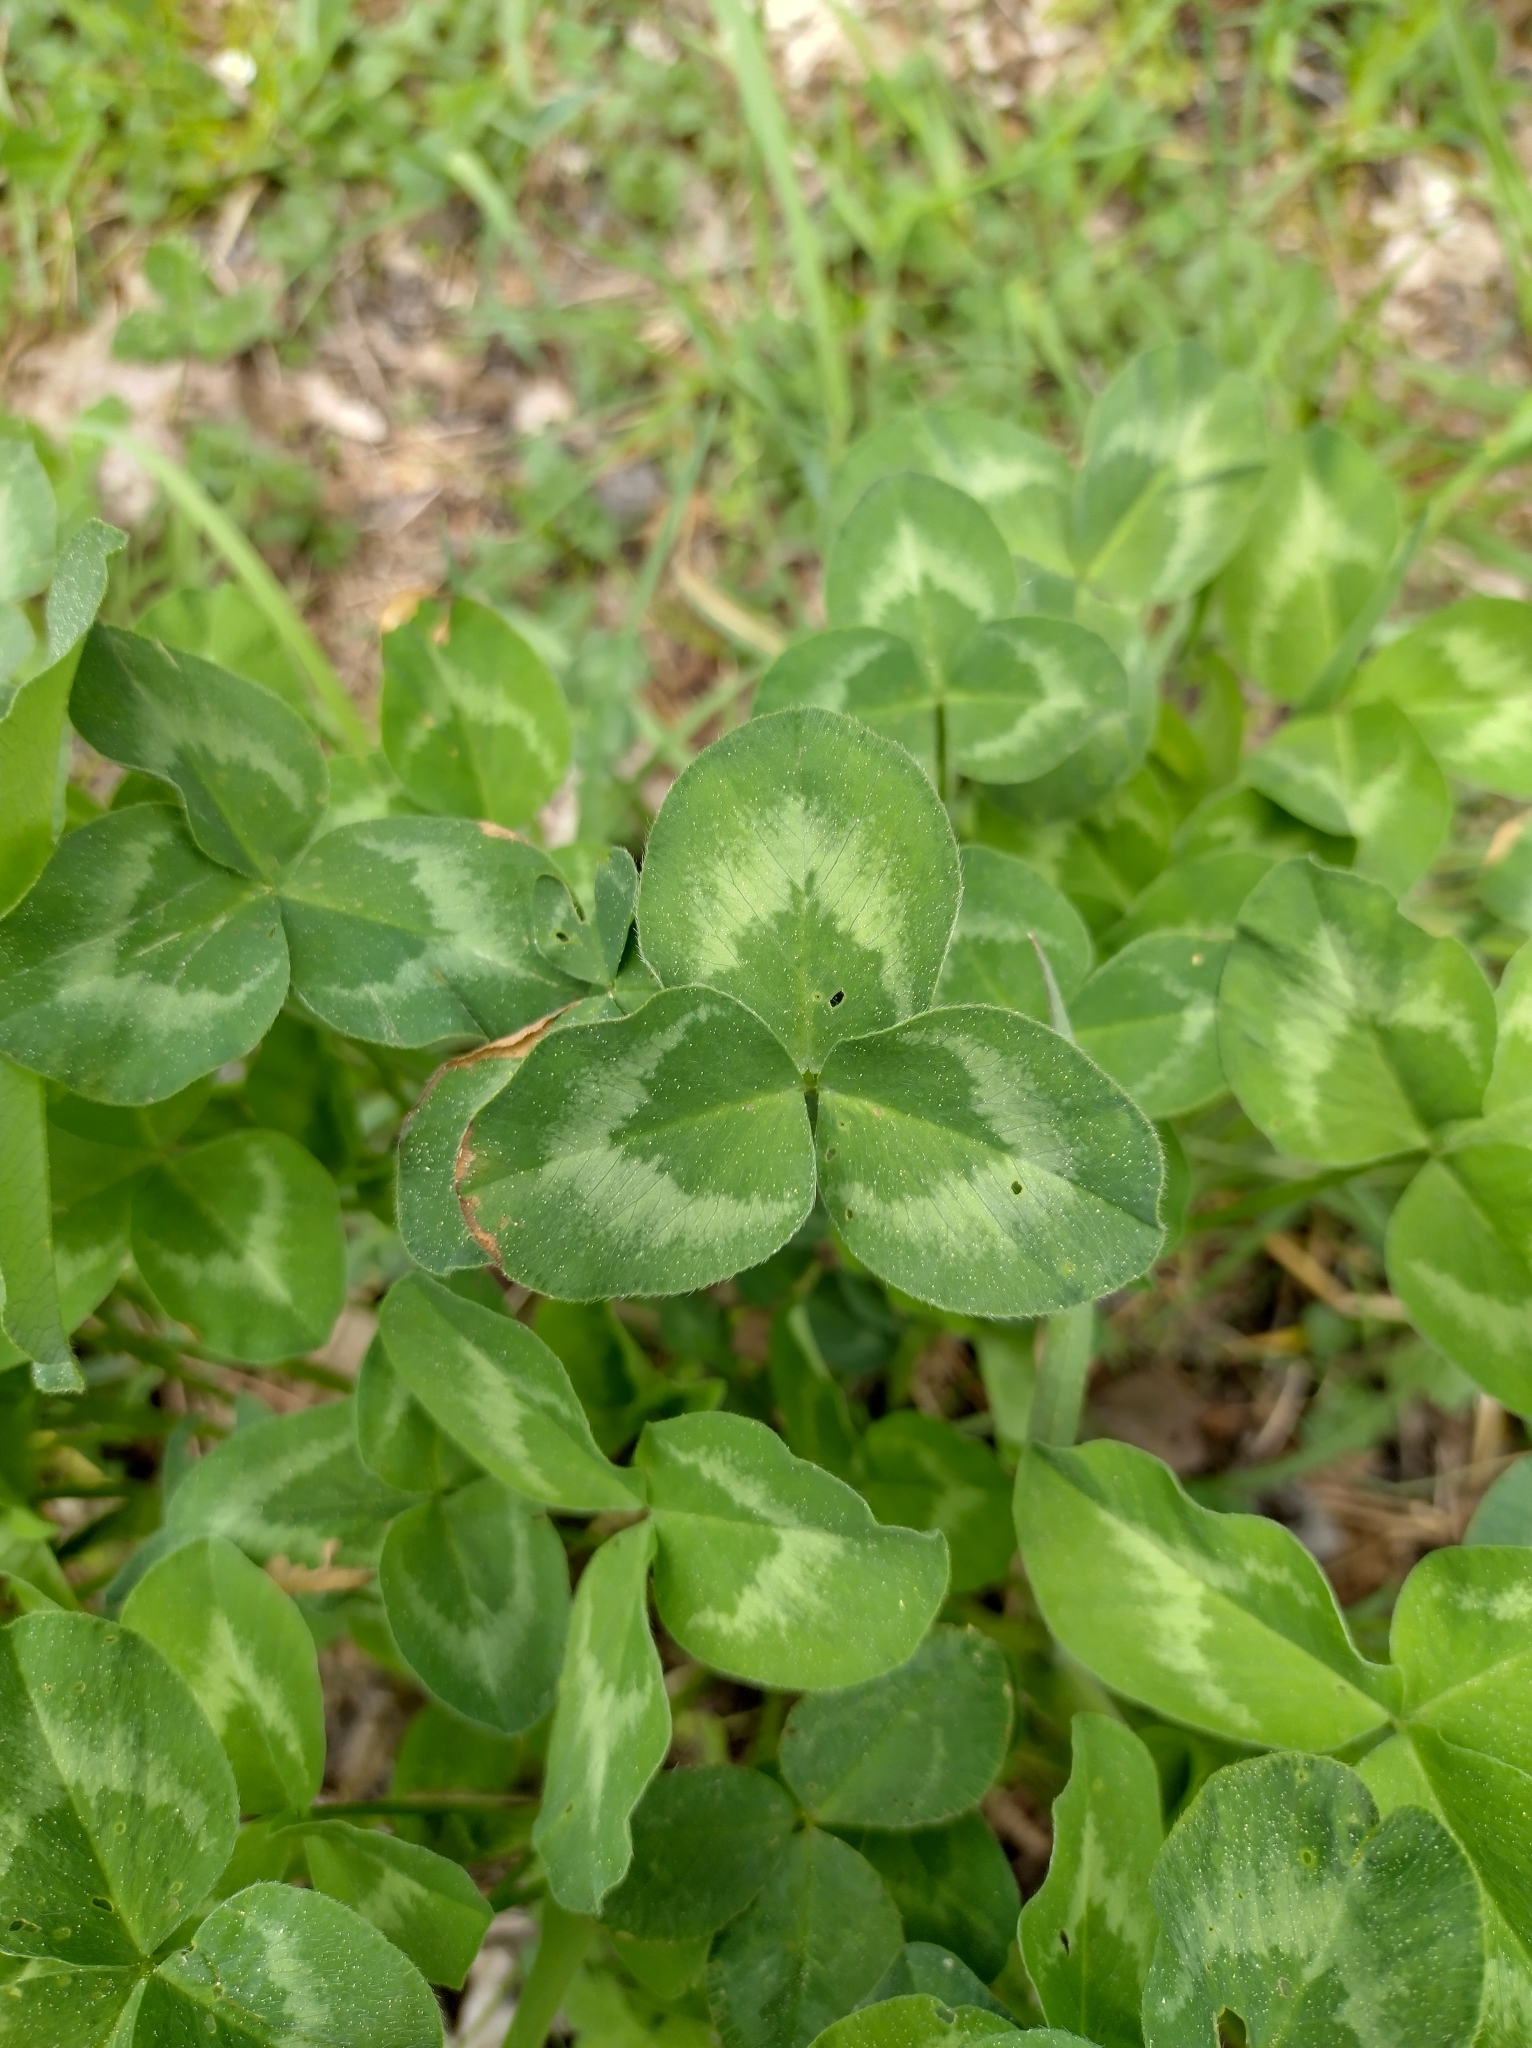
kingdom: Plantae
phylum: Tracheophyta
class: Magnoliopsida
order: Fabales
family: Fabaceae
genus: Trifolium
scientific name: Trifolium pratense
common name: Red clover
